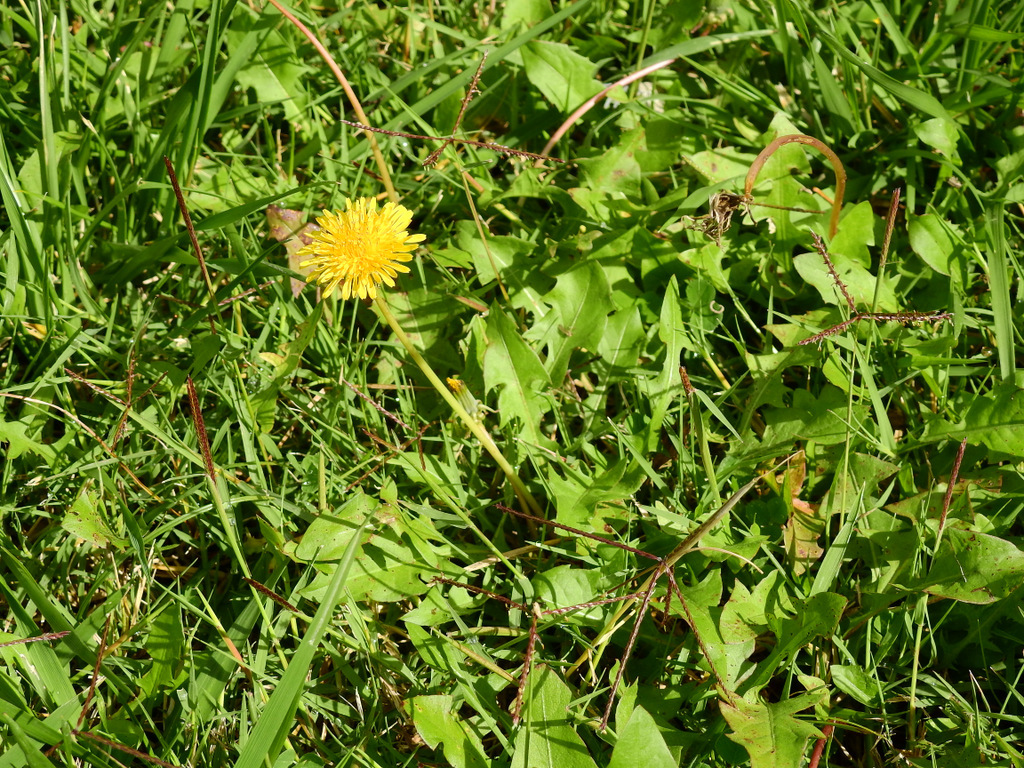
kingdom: Plantae
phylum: Tracheophyta
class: Magnoliopsida
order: Asterales
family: Asteraceae
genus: Taraxacum
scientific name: Taraxacum officinale
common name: Common dandelion
